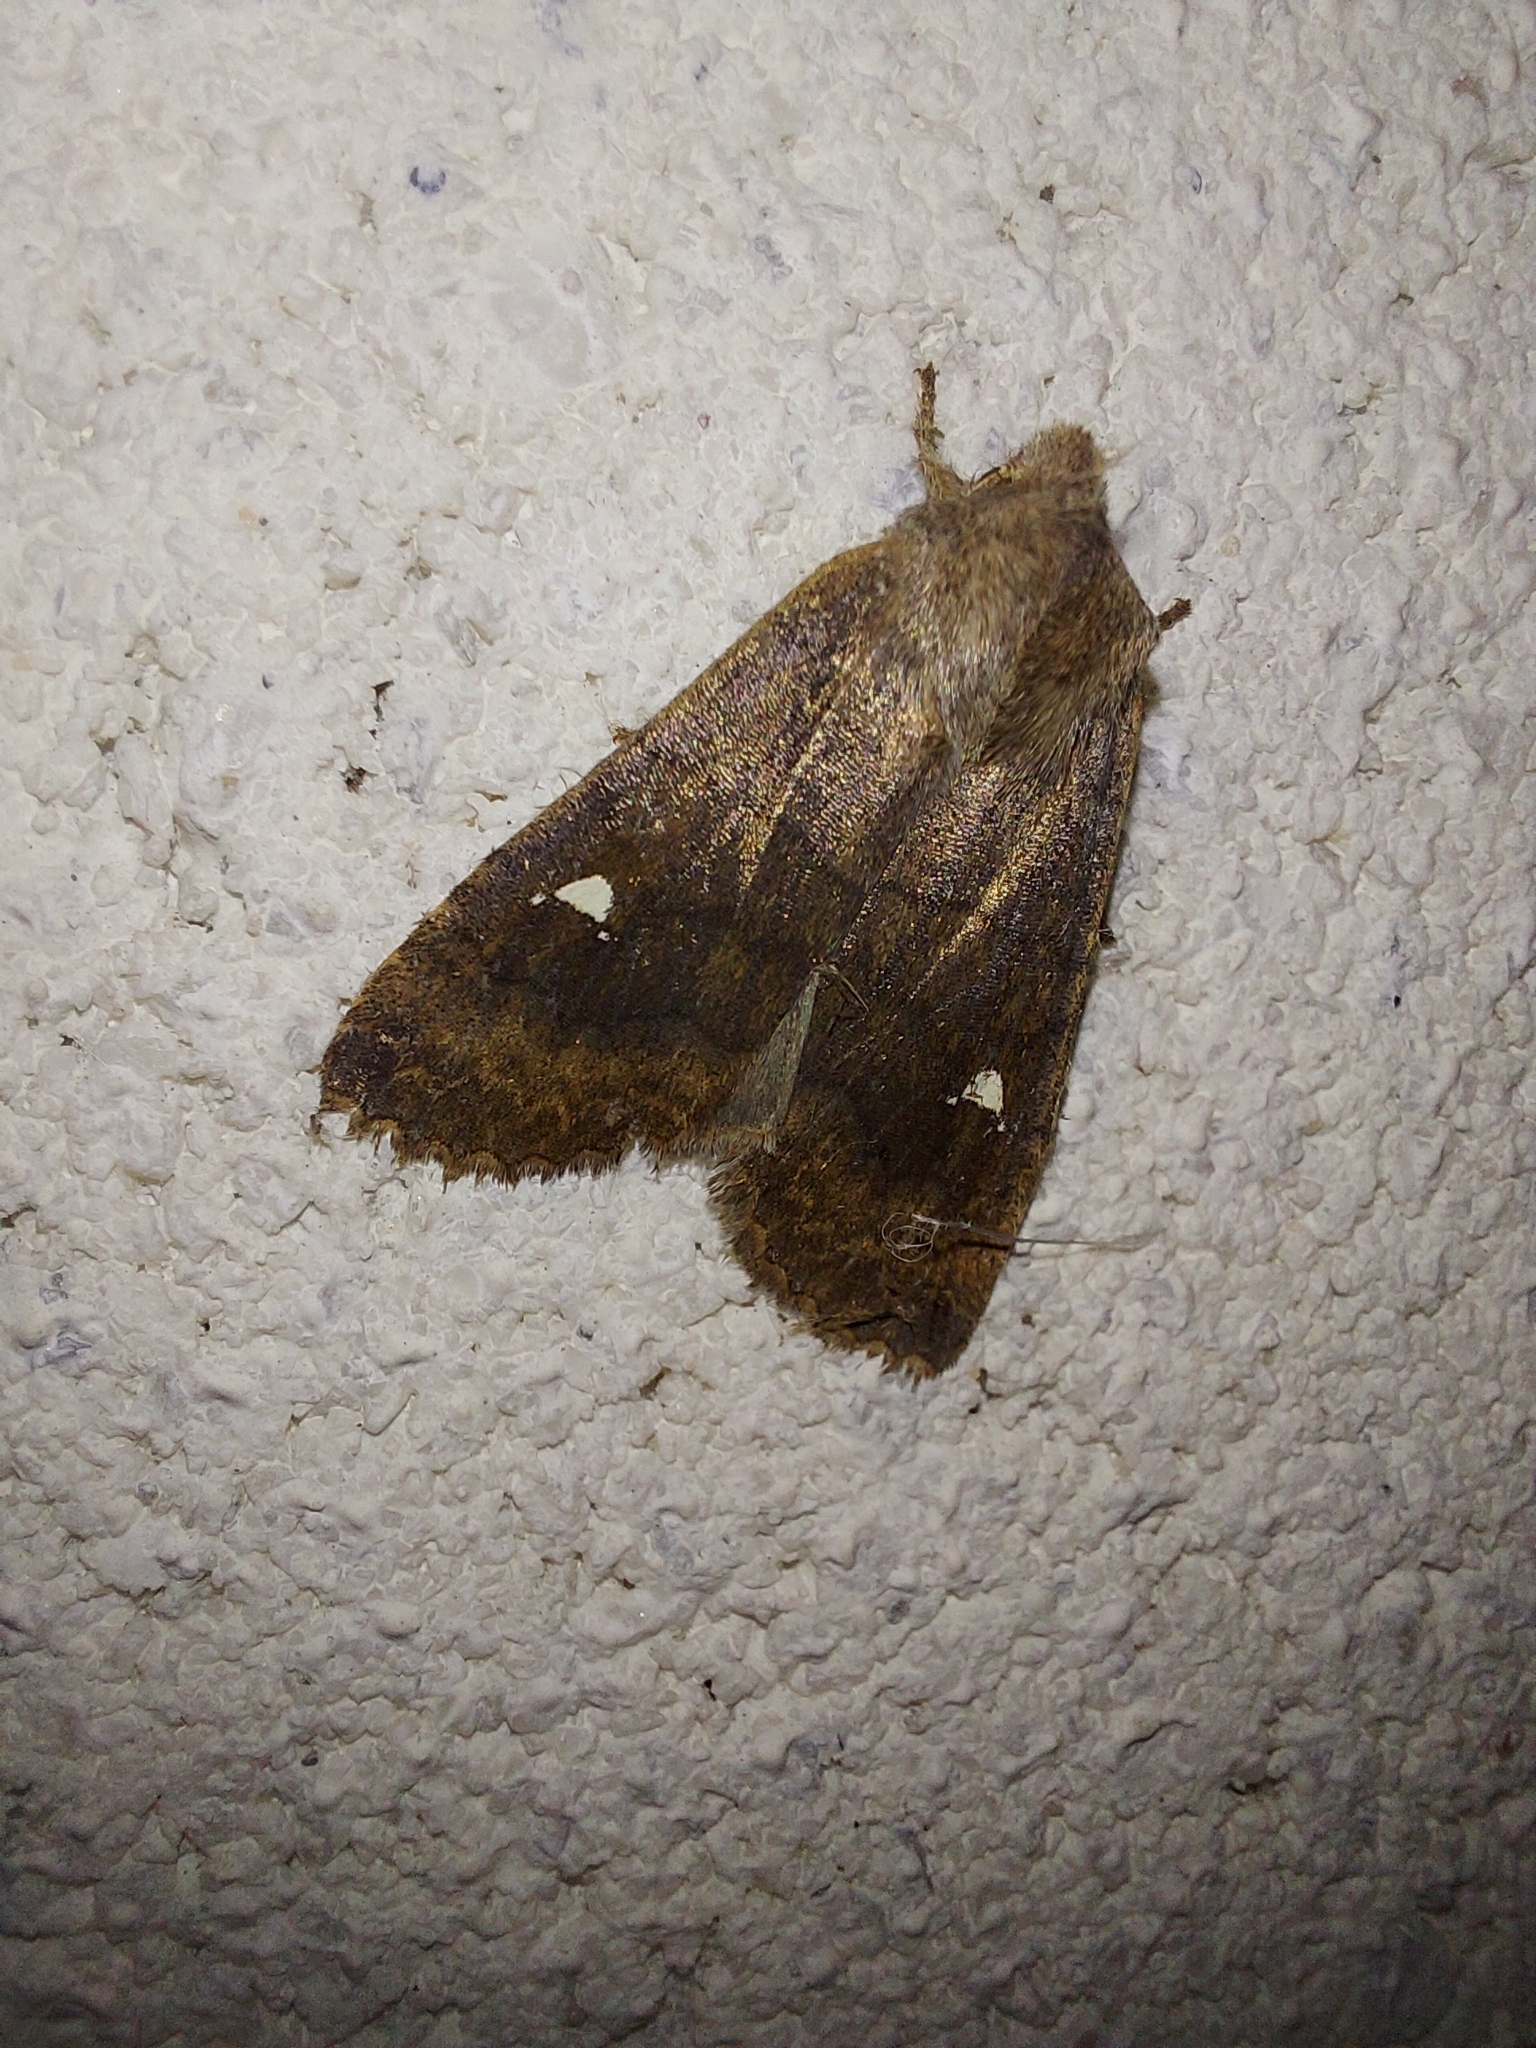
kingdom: Animalia
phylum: Arthropoda
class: Insecta
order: Lepidoptera
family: Noctuidae
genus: Eupsilia
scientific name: Eupsilia transversa
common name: Satellite
